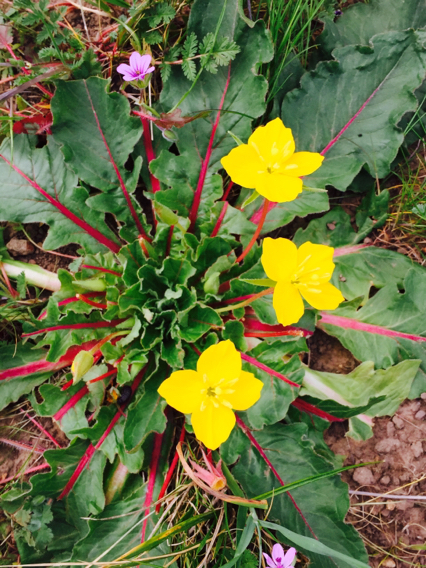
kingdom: Plantae
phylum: Tracheophyta
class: Magnoliopsida
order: Myrtales
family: Onagraceae
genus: Taraxia
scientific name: Taraxia ovata
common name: Goldeneggs
